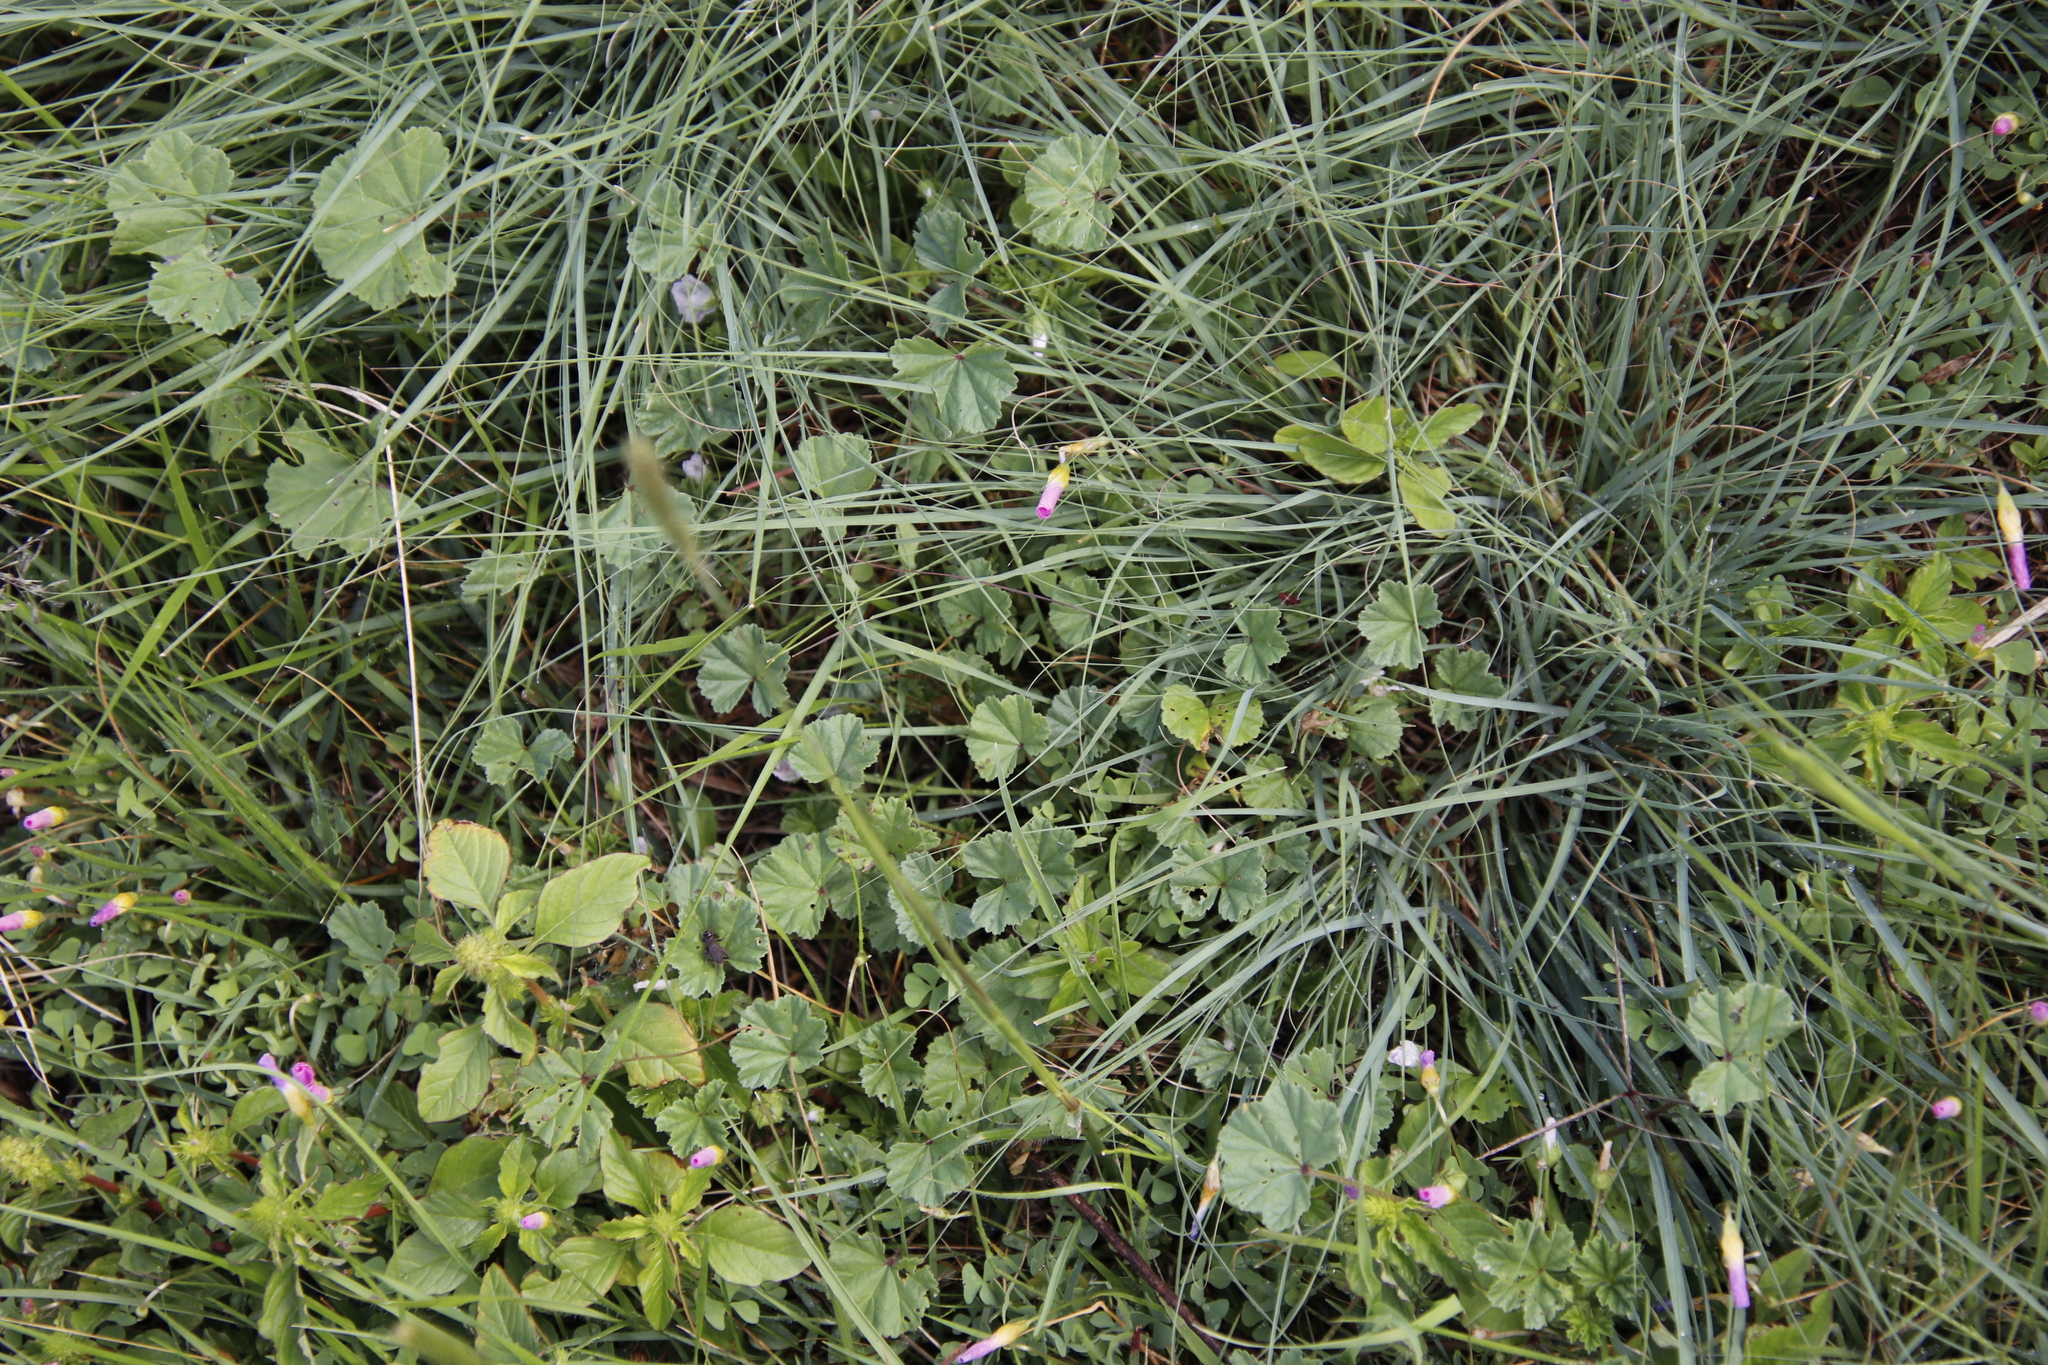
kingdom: Plantae
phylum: Tracheophyta
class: Magnoliopsida
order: Oxalidales
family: Oxalidaceae
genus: Oxalis
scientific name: Oxalis obliquifolia
